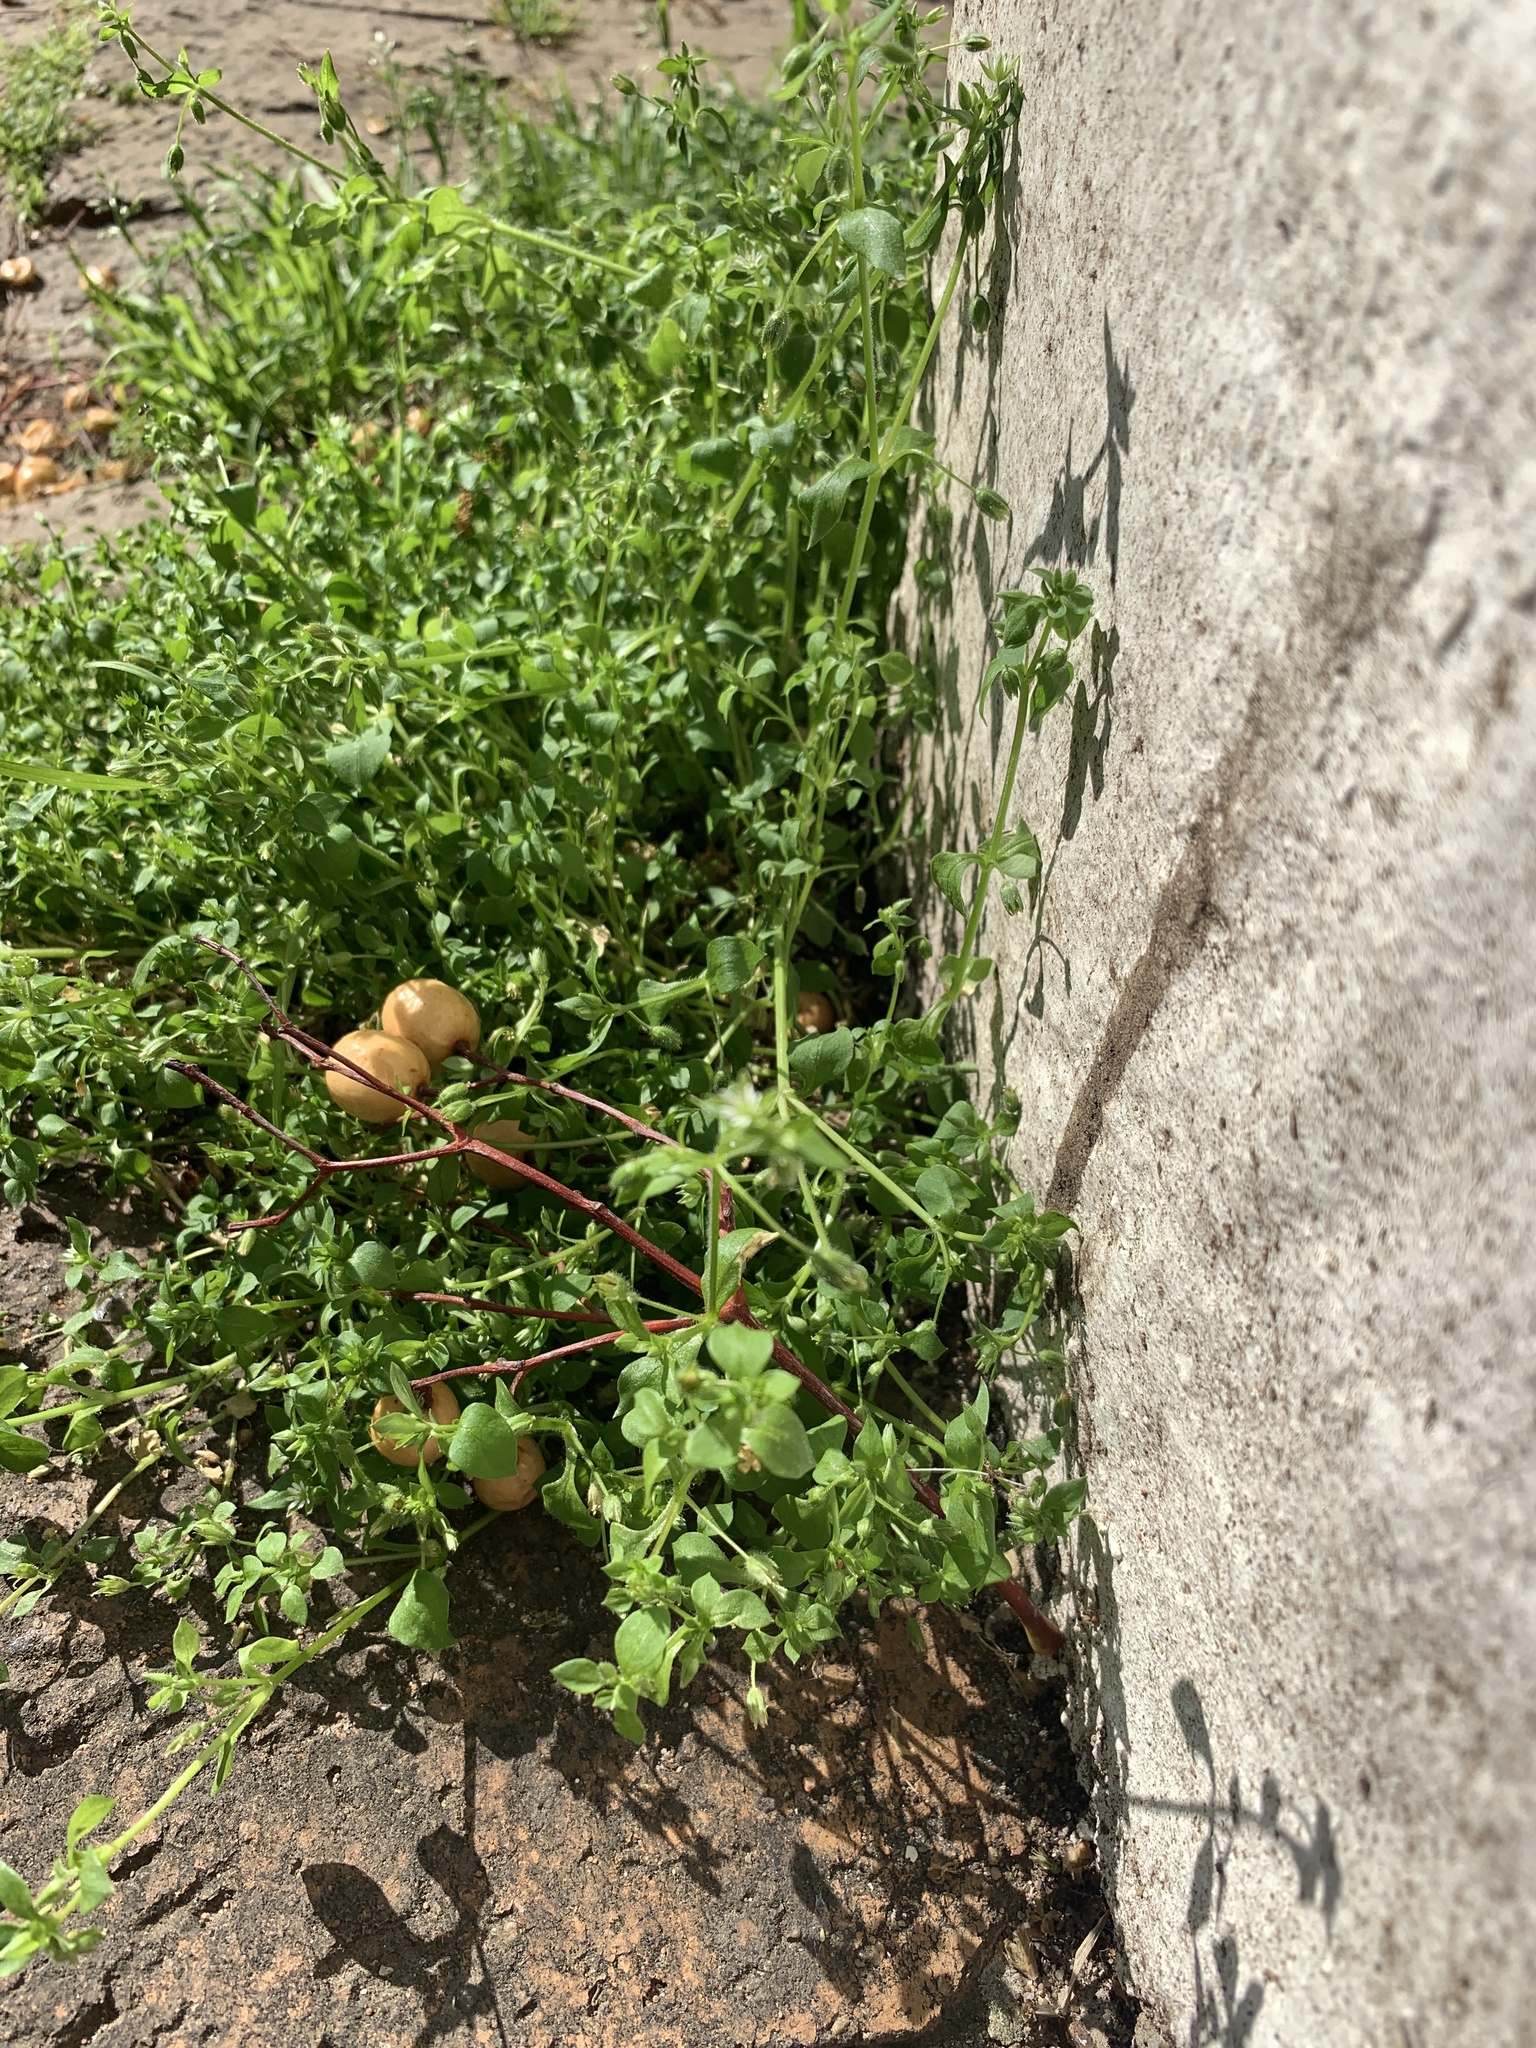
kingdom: Plantae
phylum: Tracheophyta
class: Magnoliopsida
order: Caryophyllales
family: Caryophyllaceae
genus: Stellaria
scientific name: Stellaria media
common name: Common chickweed
